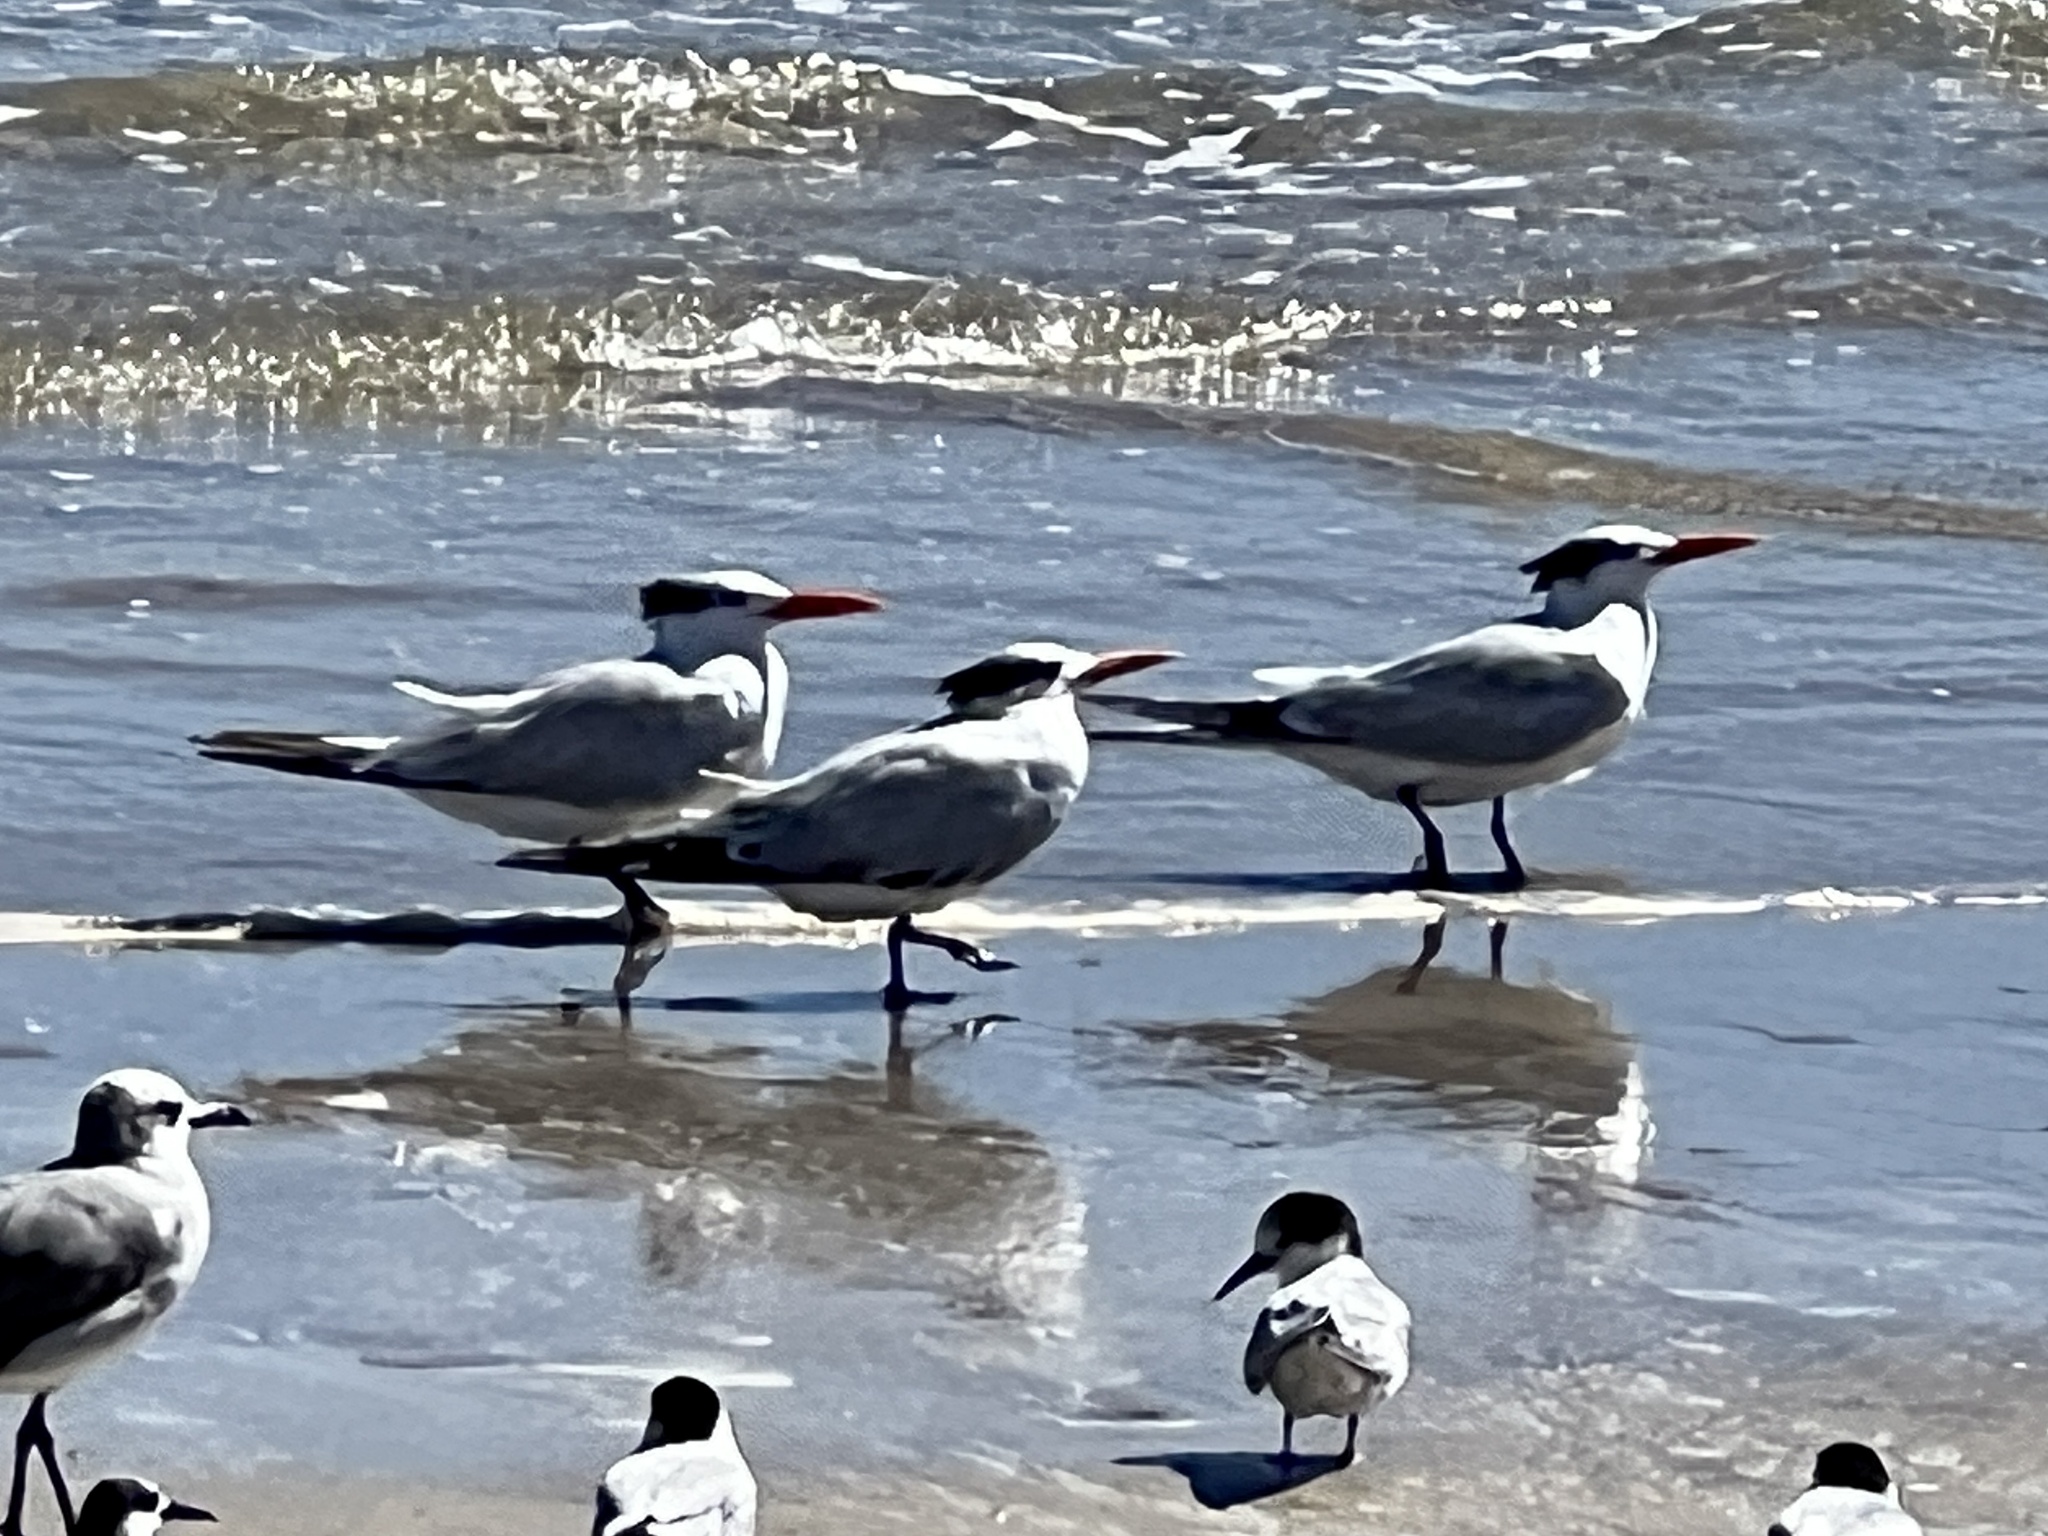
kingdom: Animalia
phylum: Chordata
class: Aves
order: Charadriiformes
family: Laridae
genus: Thalasseus
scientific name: Thalasseus maximus
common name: Royal tern
